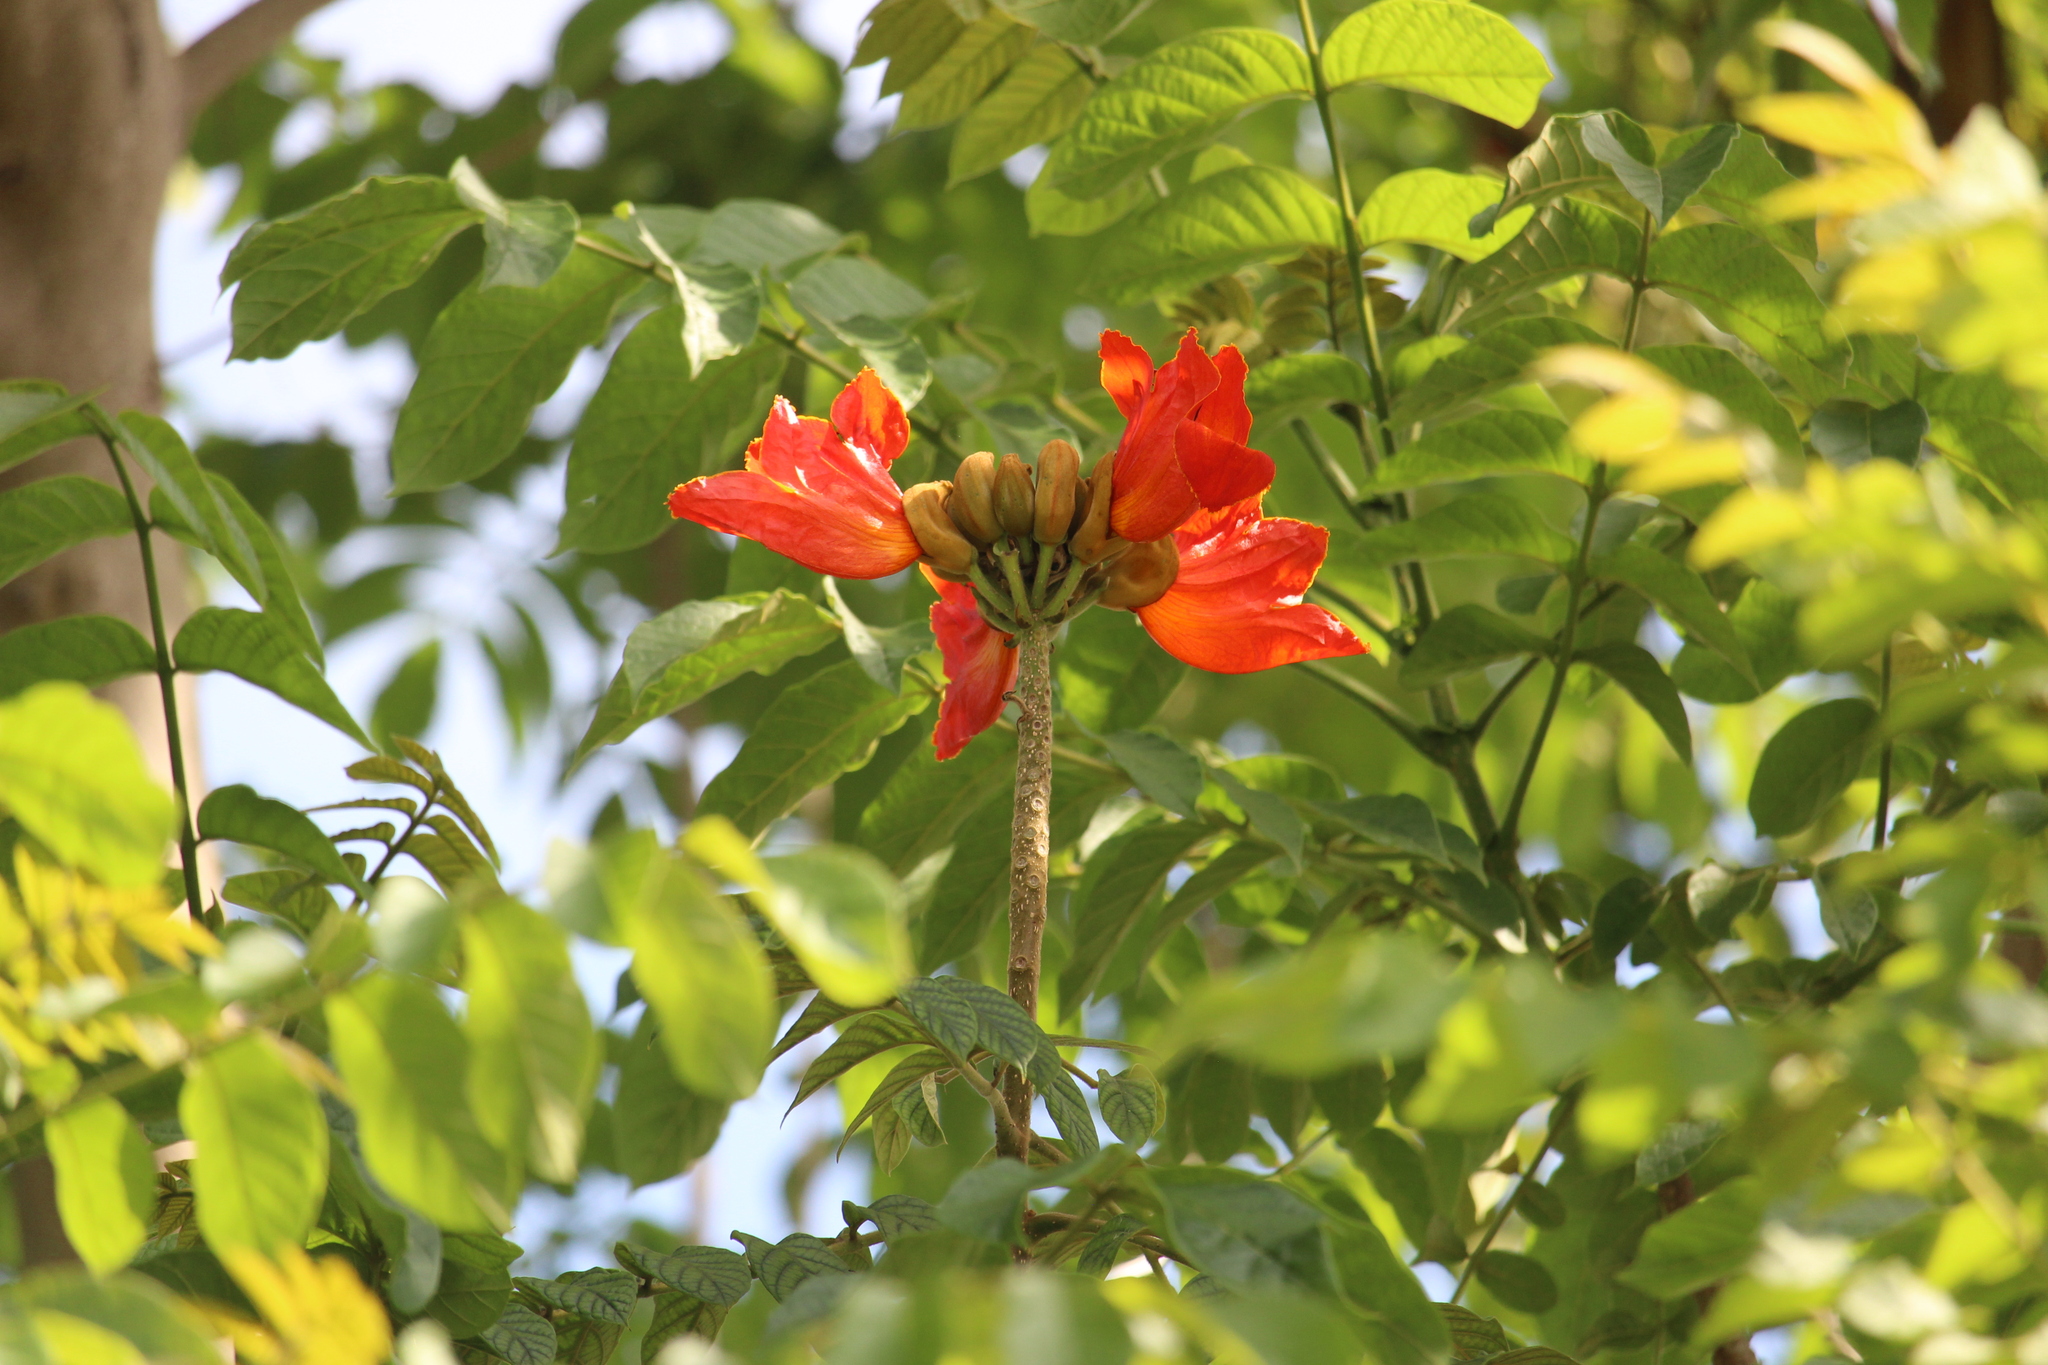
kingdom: Plantae
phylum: Tracheophyta
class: Magnoliopsida
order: Lamiales
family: Bignoniaceae
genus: Spathodea
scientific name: Spathodea campanulata
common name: African tuliptree
